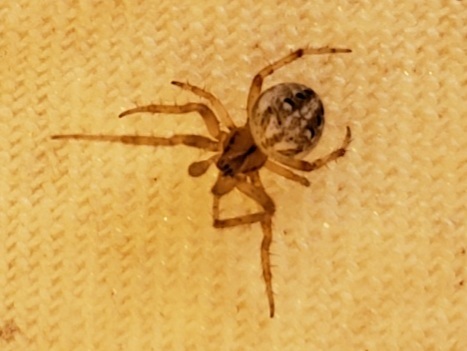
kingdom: Animalia
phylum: Arthropoda
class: Arachnida
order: Araneae
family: Araneidae
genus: Neoscona
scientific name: Neoscona arabesca
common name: Orb weavers
